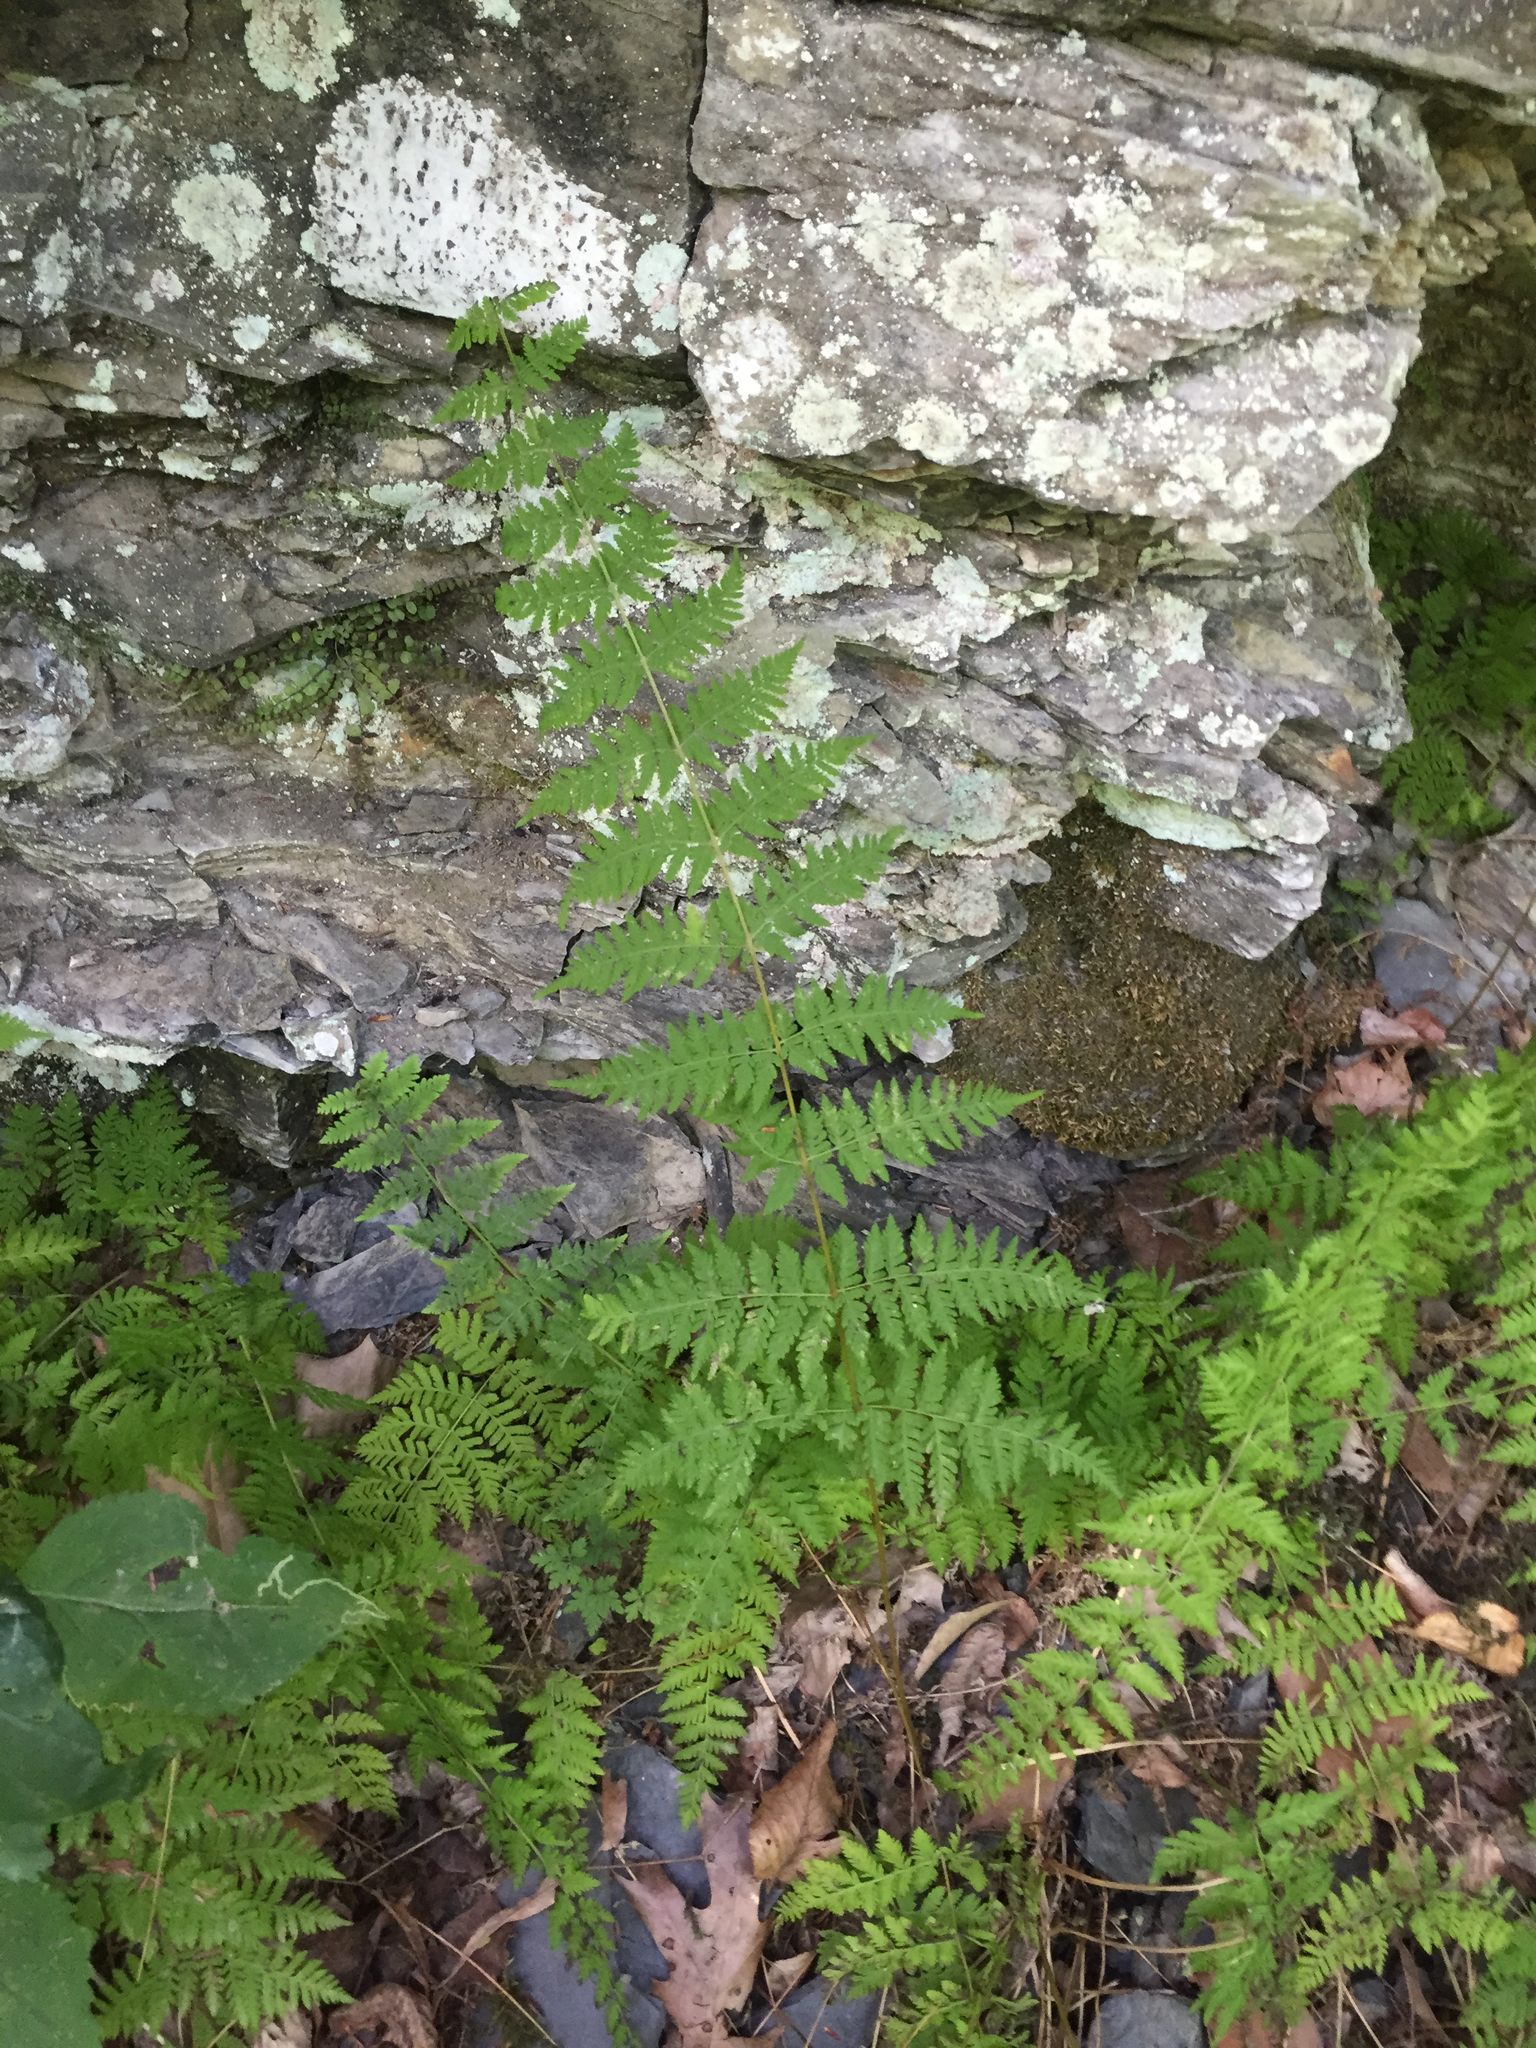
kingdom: Plantae
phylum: Tracheophyta
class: Polypodiopsida
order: Polypodiales
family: Cystopteridaceae
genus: Cystopteris
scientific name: Cystopteris bulbifera
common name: Bulblet bladder fern
